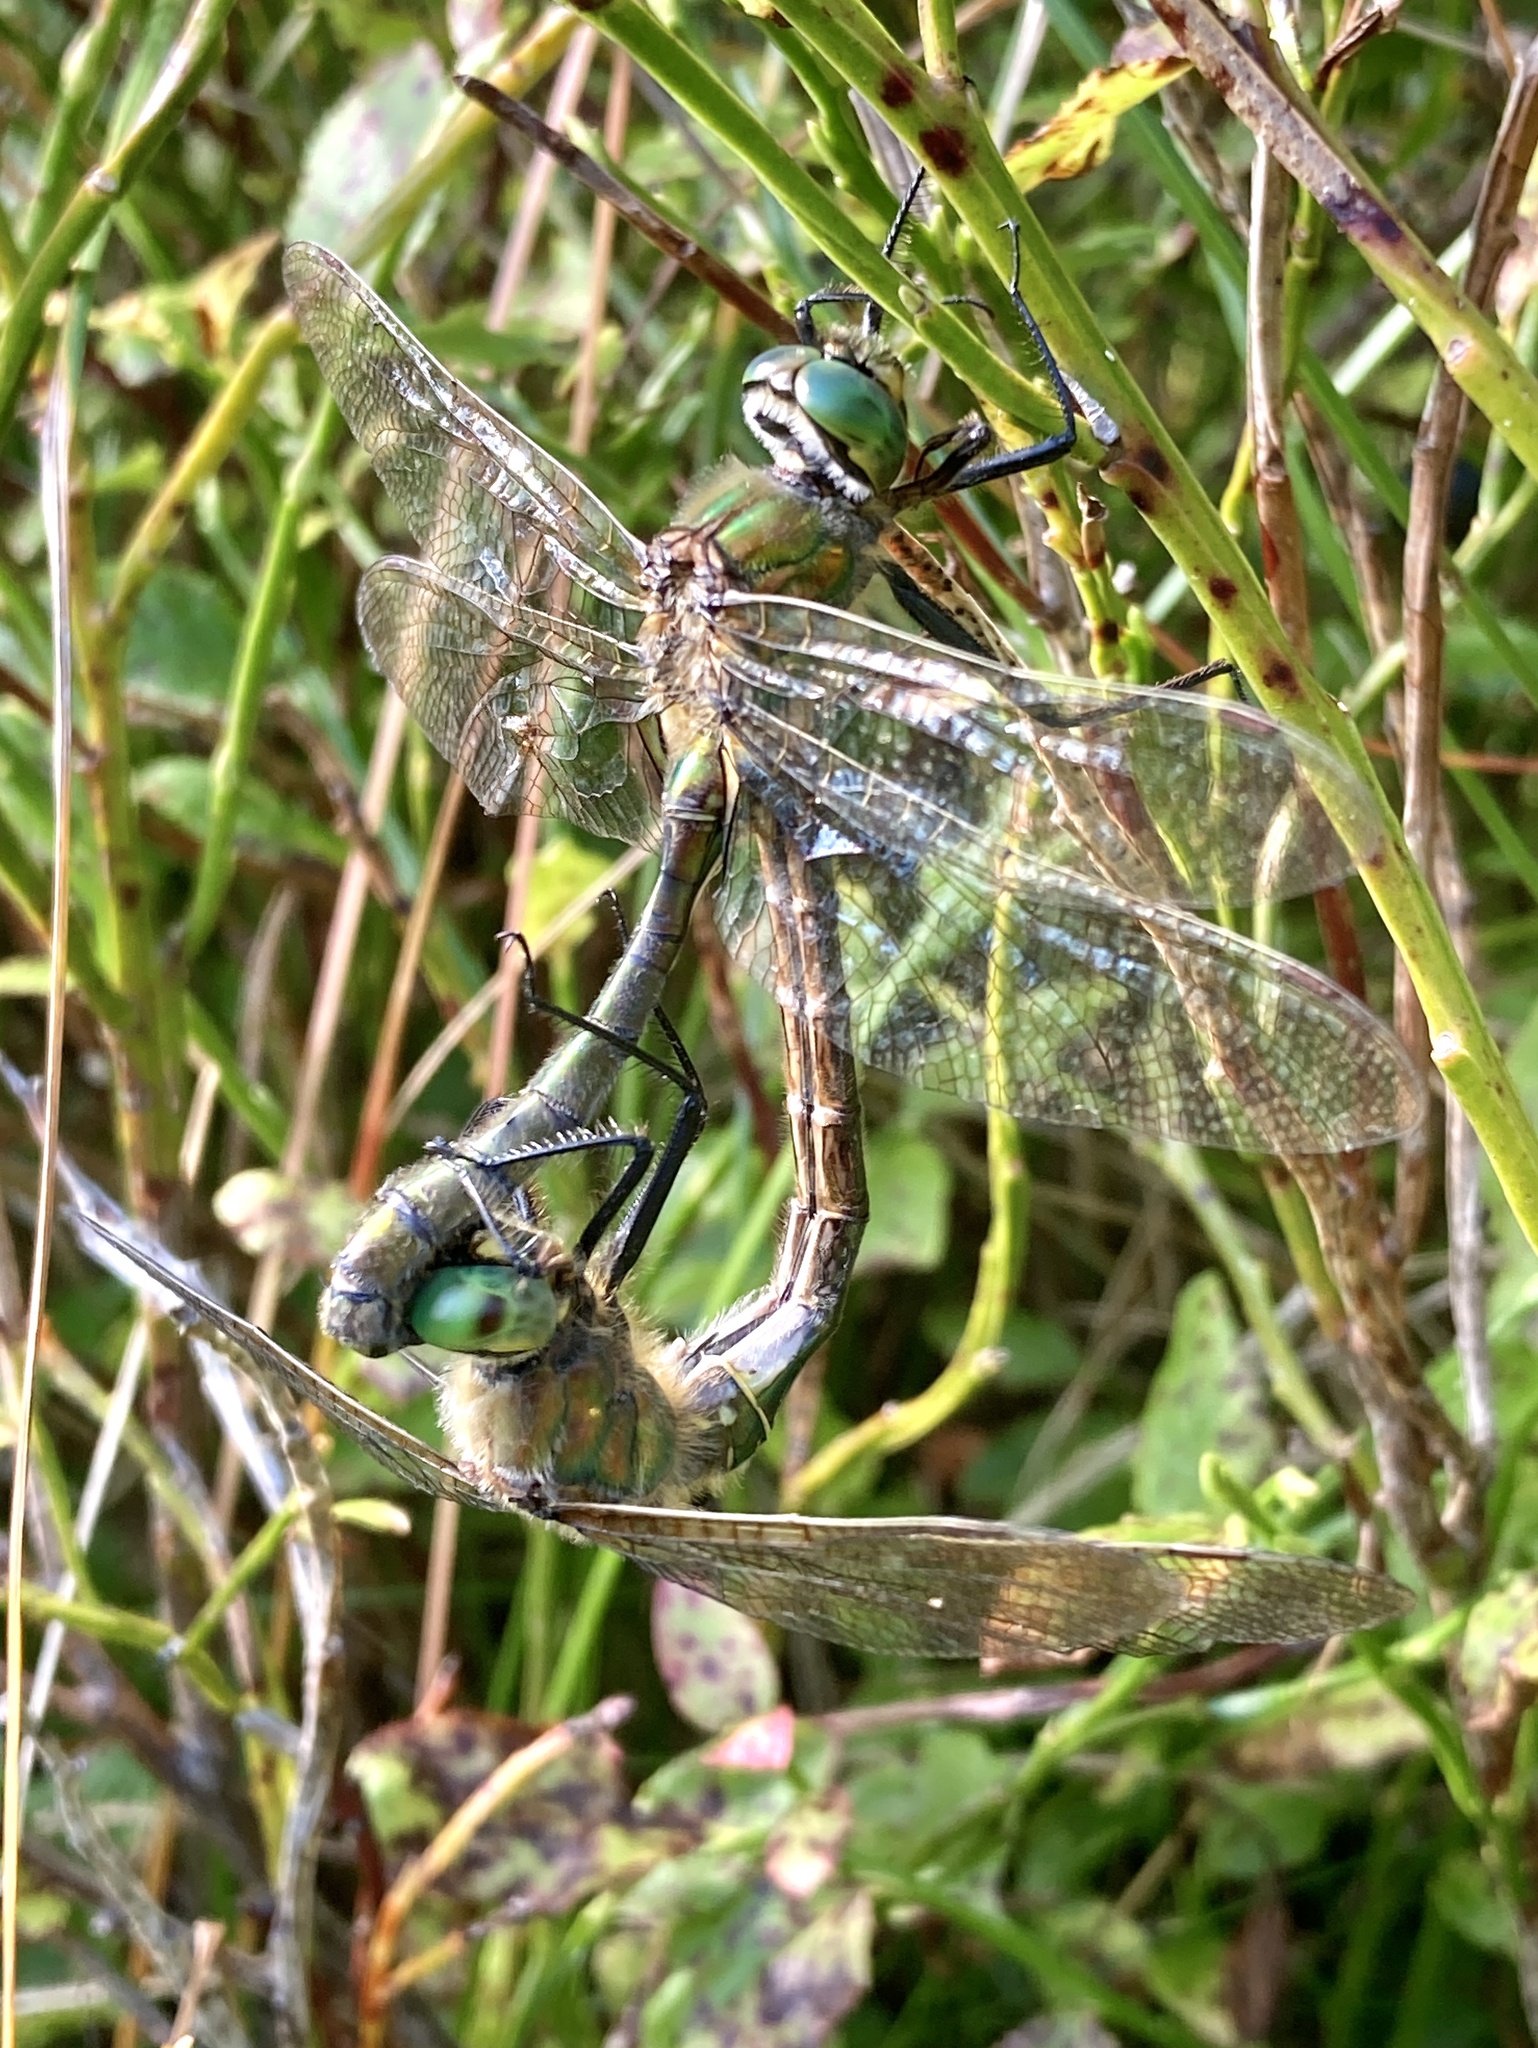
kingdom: Animalia
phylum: Arthropoda
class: Insecta
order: Odonata
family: Corduliidae
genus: Somatochlora
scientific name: Somatochlora metallica
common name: Brilliant emerald
